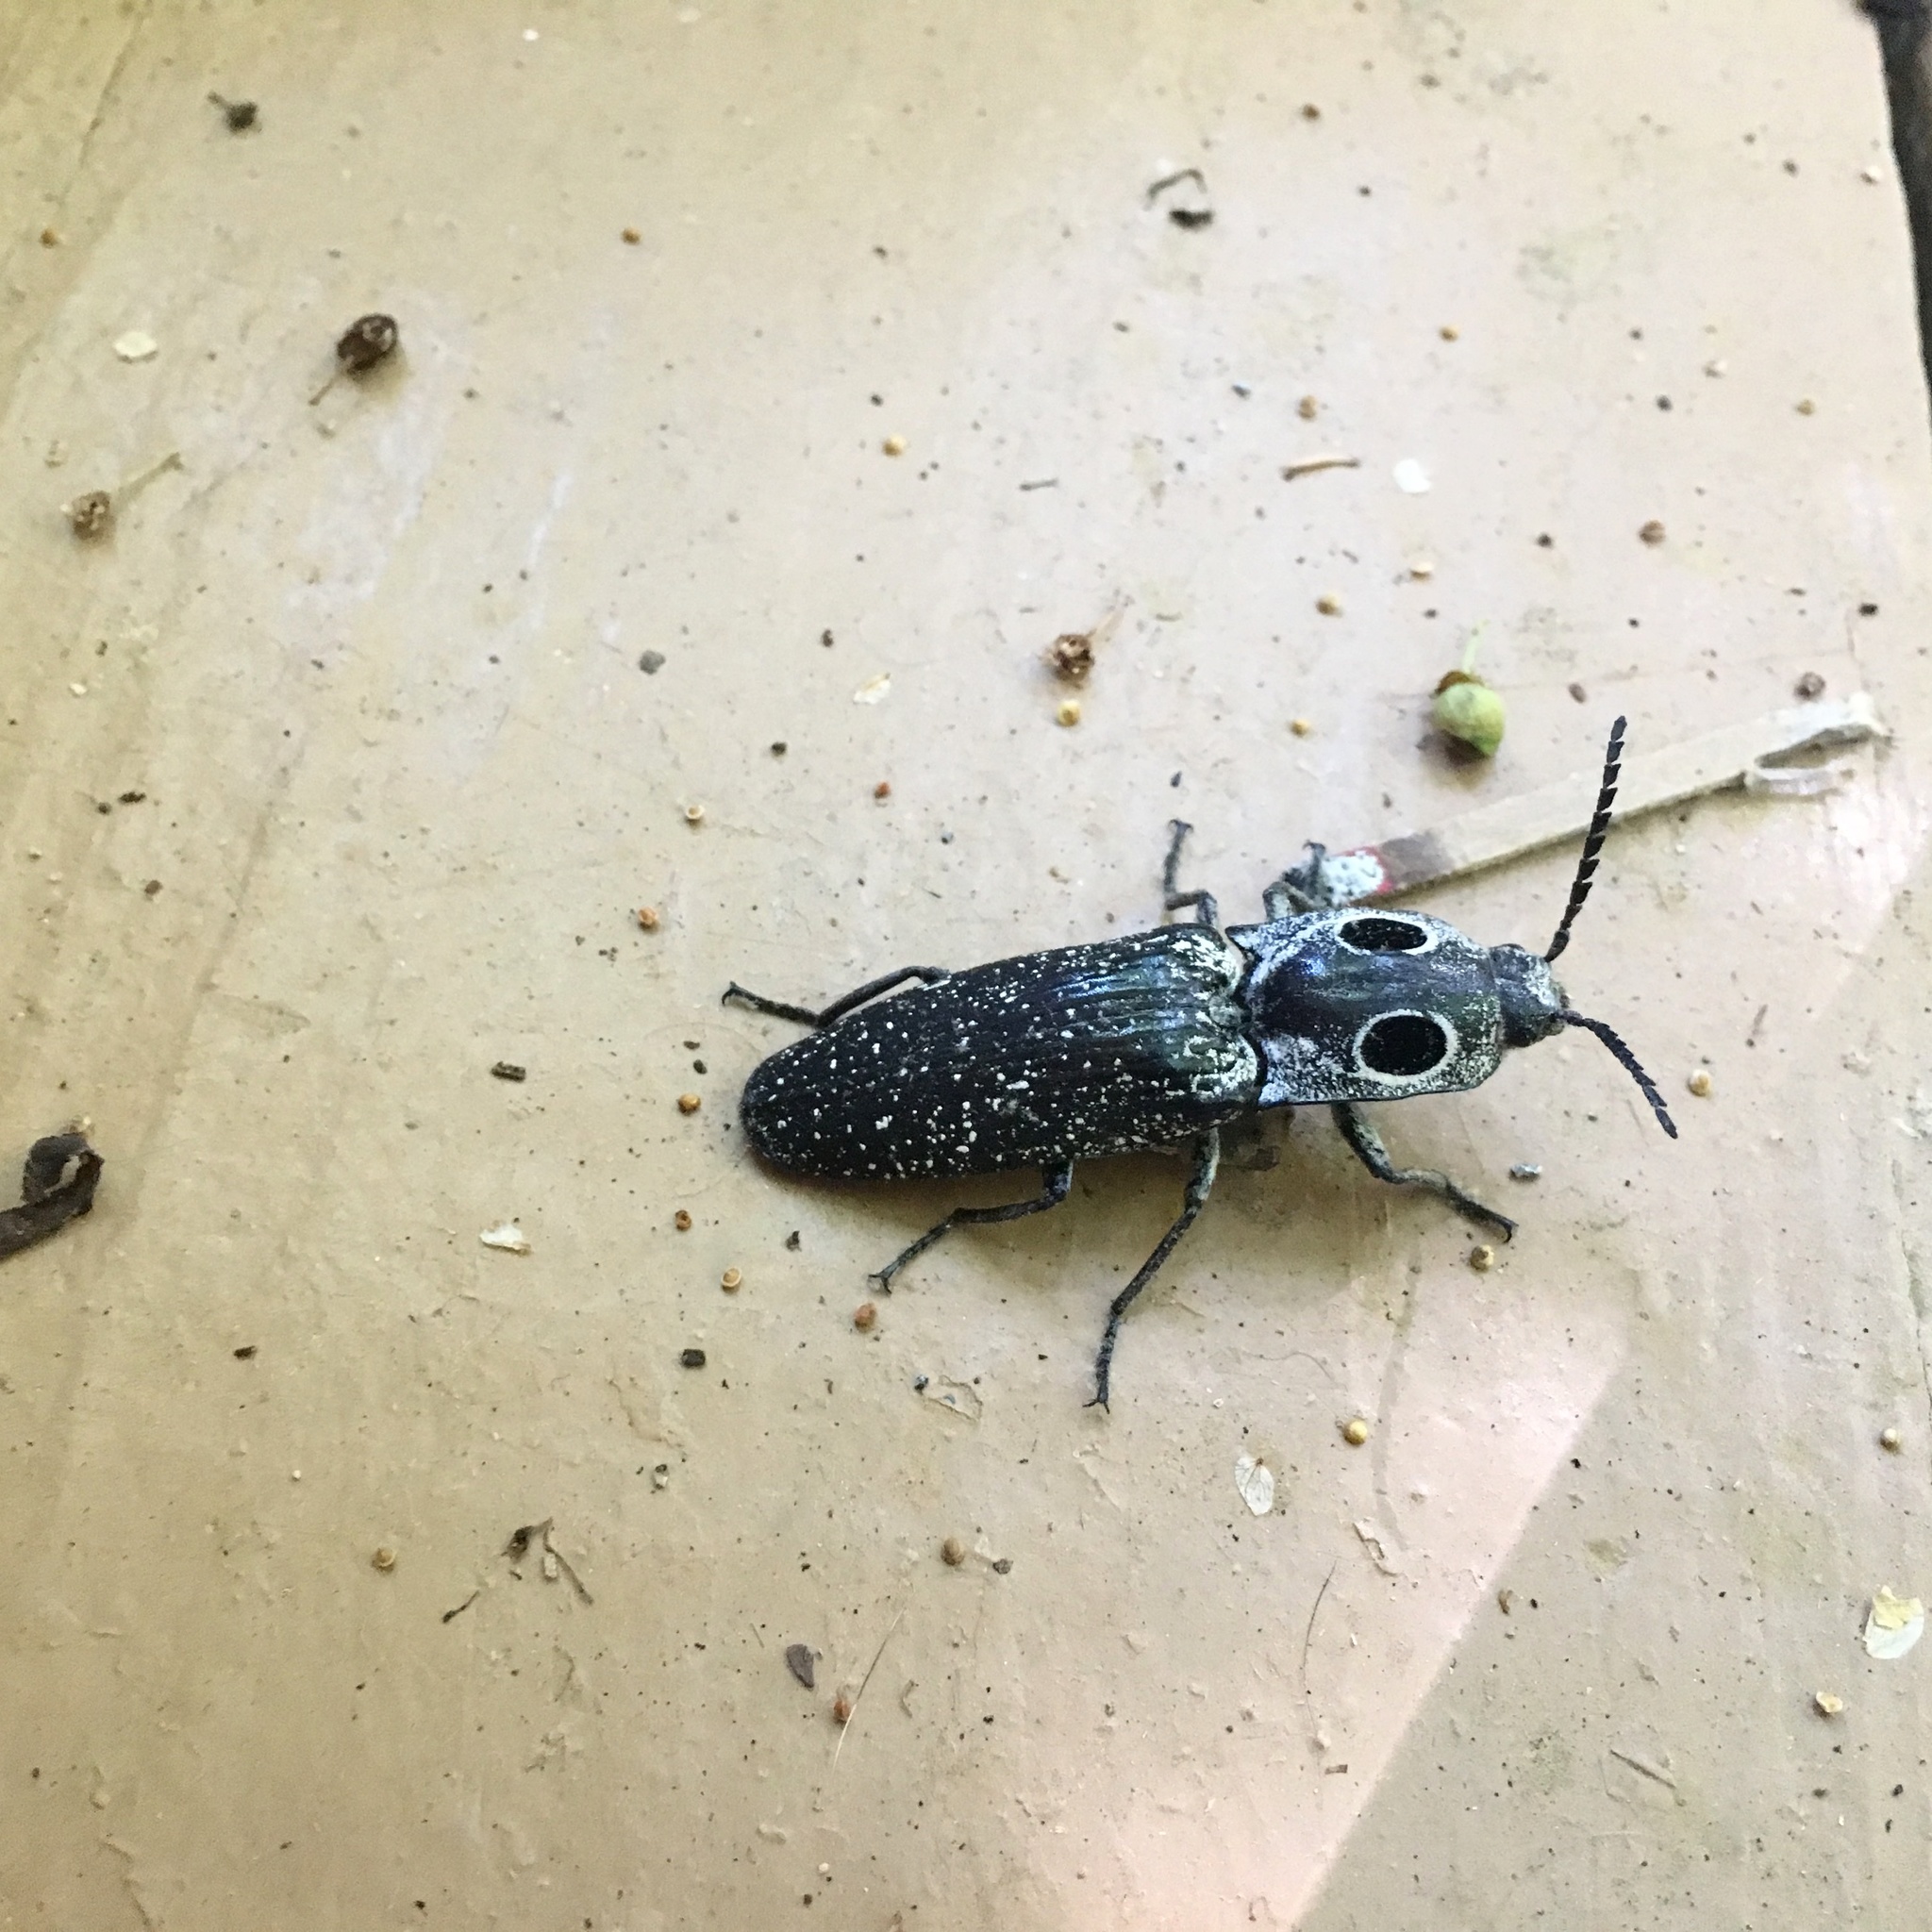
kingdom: Animalia
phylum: Arthropoda
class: Insecta
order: Coleoptera
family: Elateridae
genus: Alaus
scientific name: Alaus oculatus
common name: Eastern eyed click beetle
